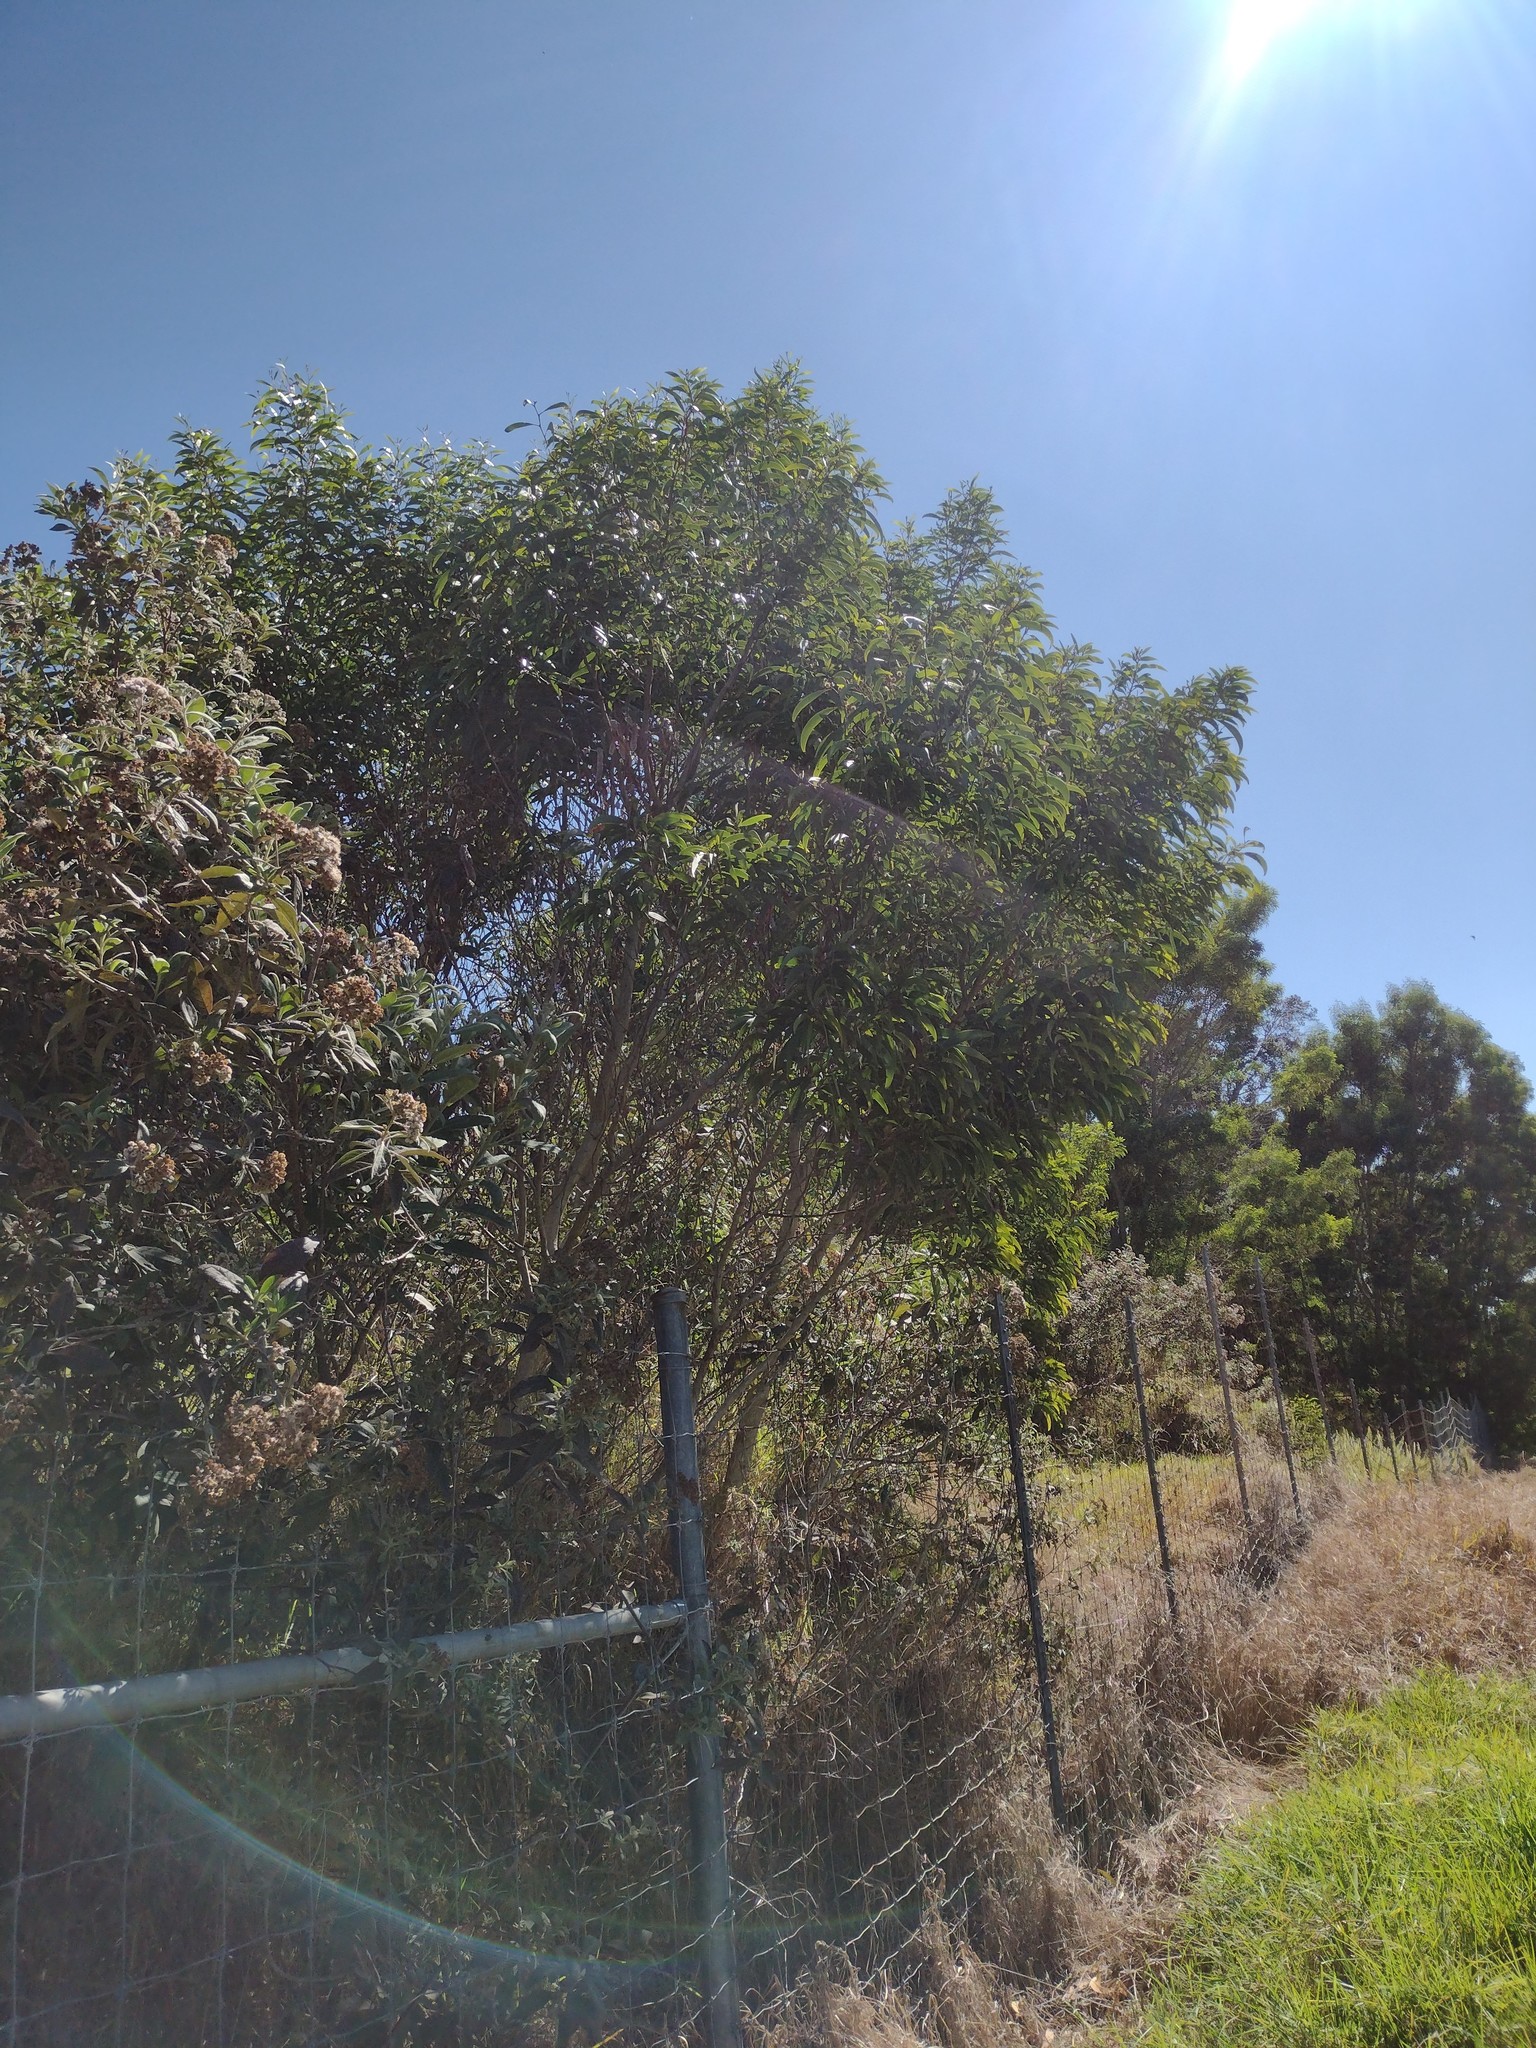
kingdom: Plantae
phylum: Tracheophyta
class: Magnoliopsida
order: Fabales
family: Fabaceae
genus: Acacia
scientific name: Acacia koa
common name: Gray koa
